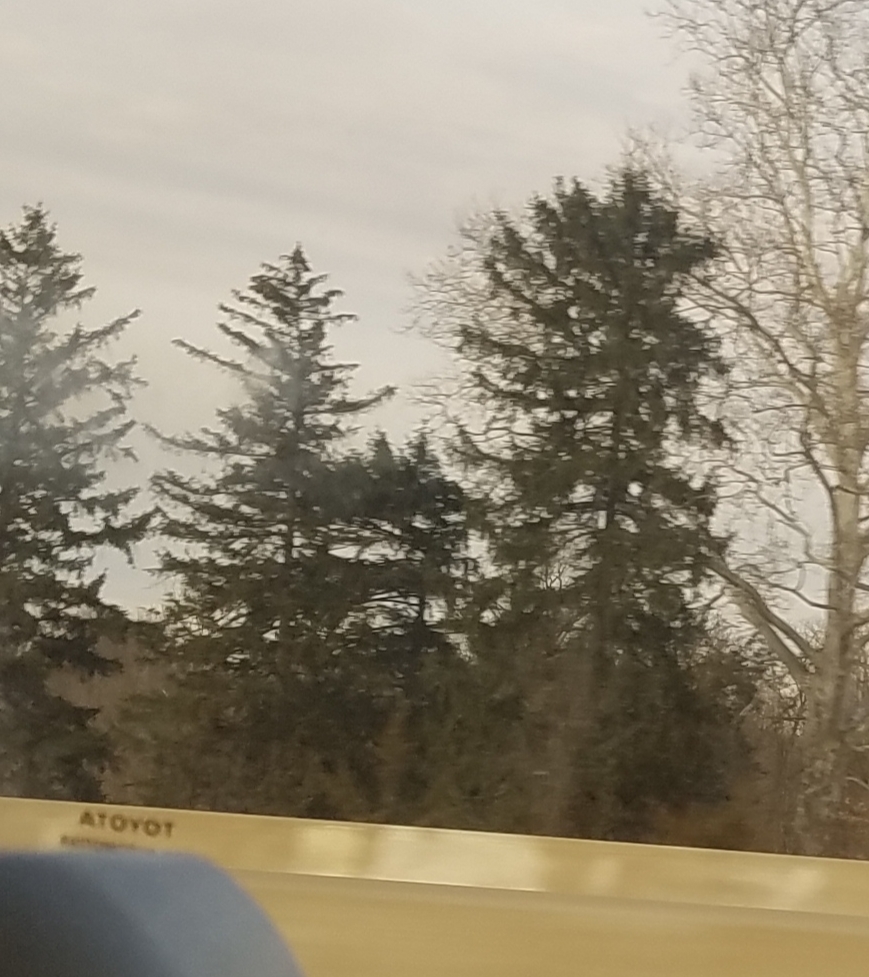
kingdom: Plantae
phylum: Tracheophyta
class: Pinopsida
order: Pinales
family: Pinaceae
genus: Pinus
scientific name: Pinus strobus
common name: Weymouth pine
